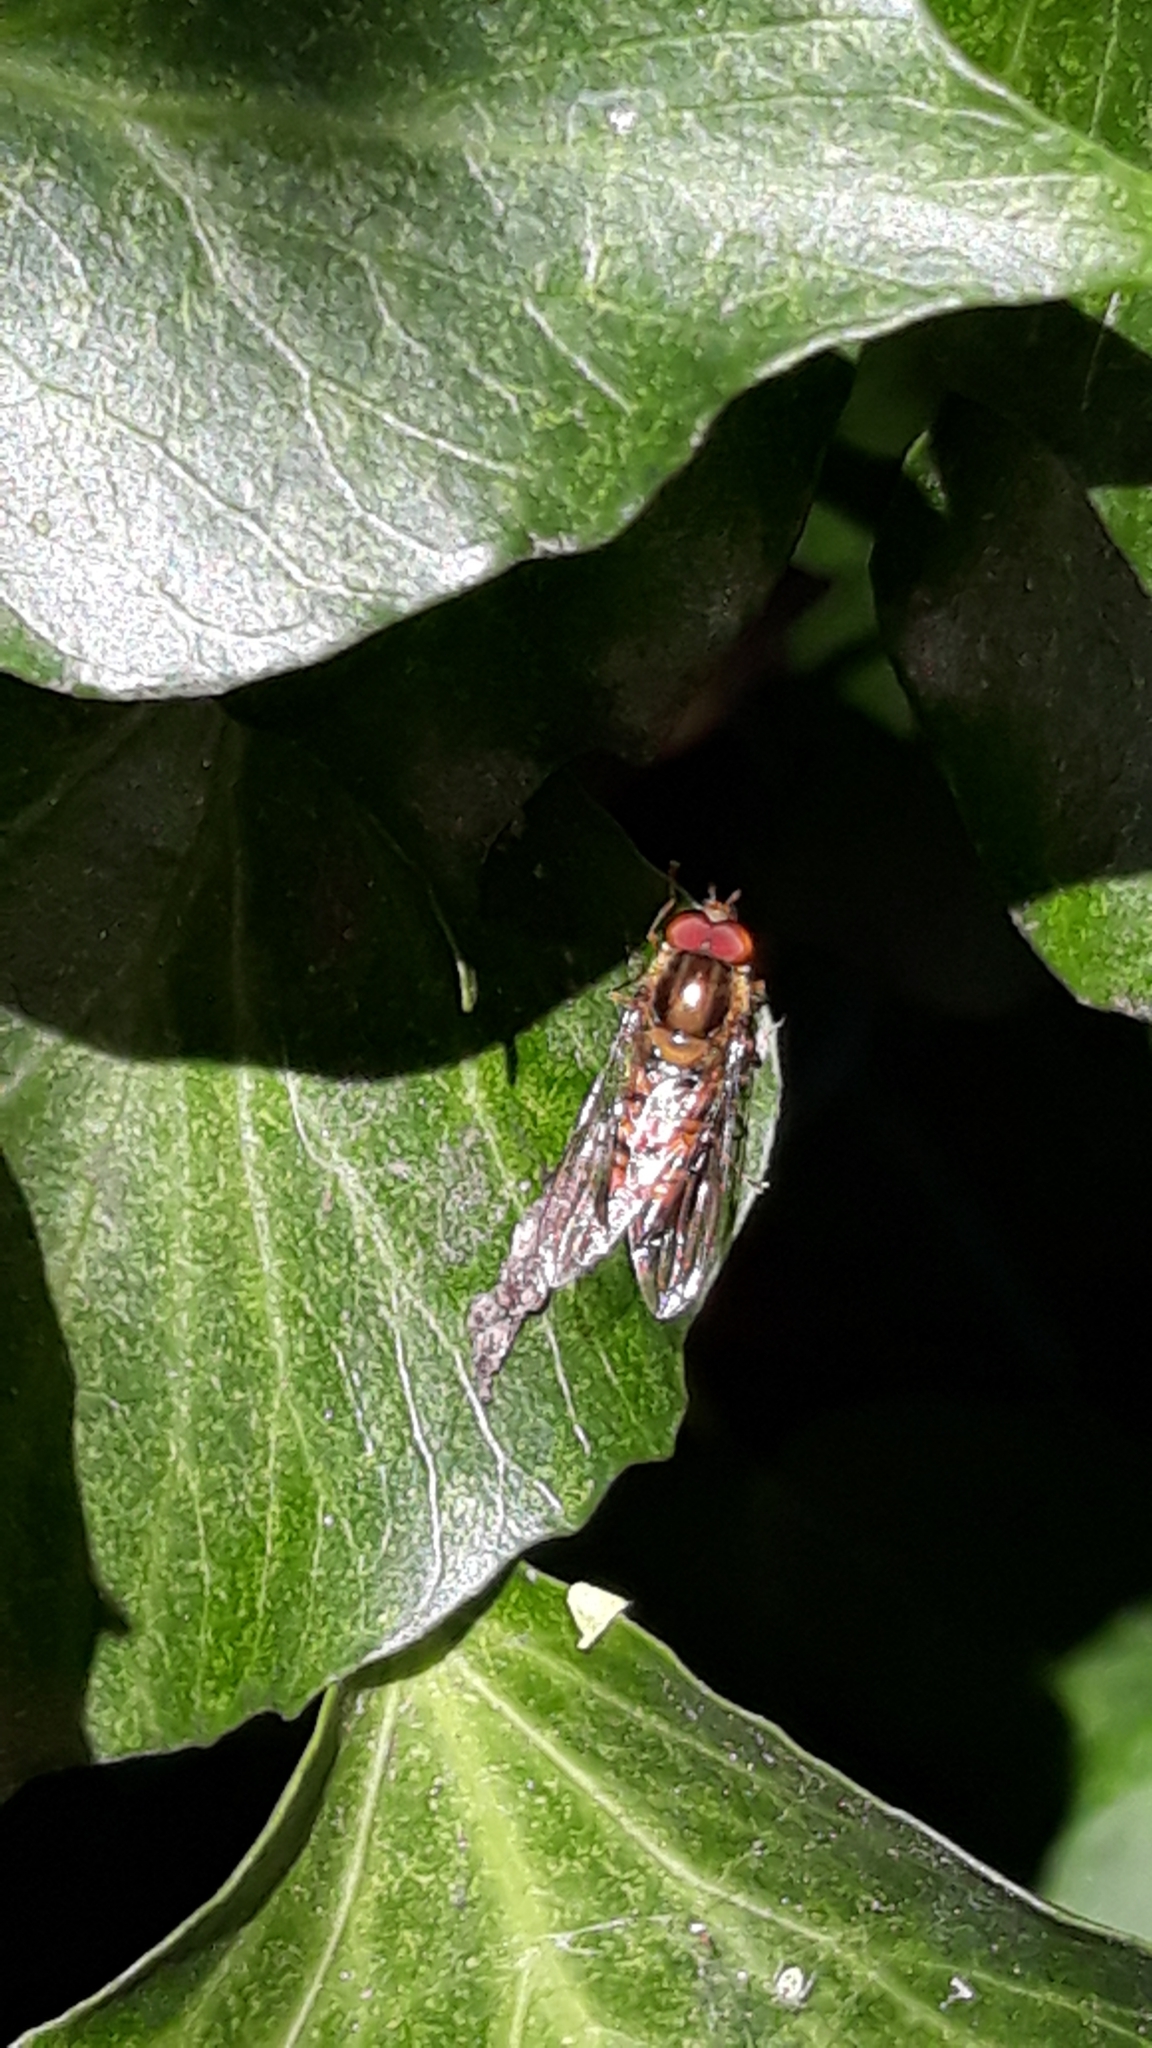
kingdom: Animalia
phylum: Arthropoda
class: Insecta
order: Diptera
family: Syrphidae
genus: Episyrphus
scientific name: Episyrphus balteatus
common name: Marmalade hoverfly
